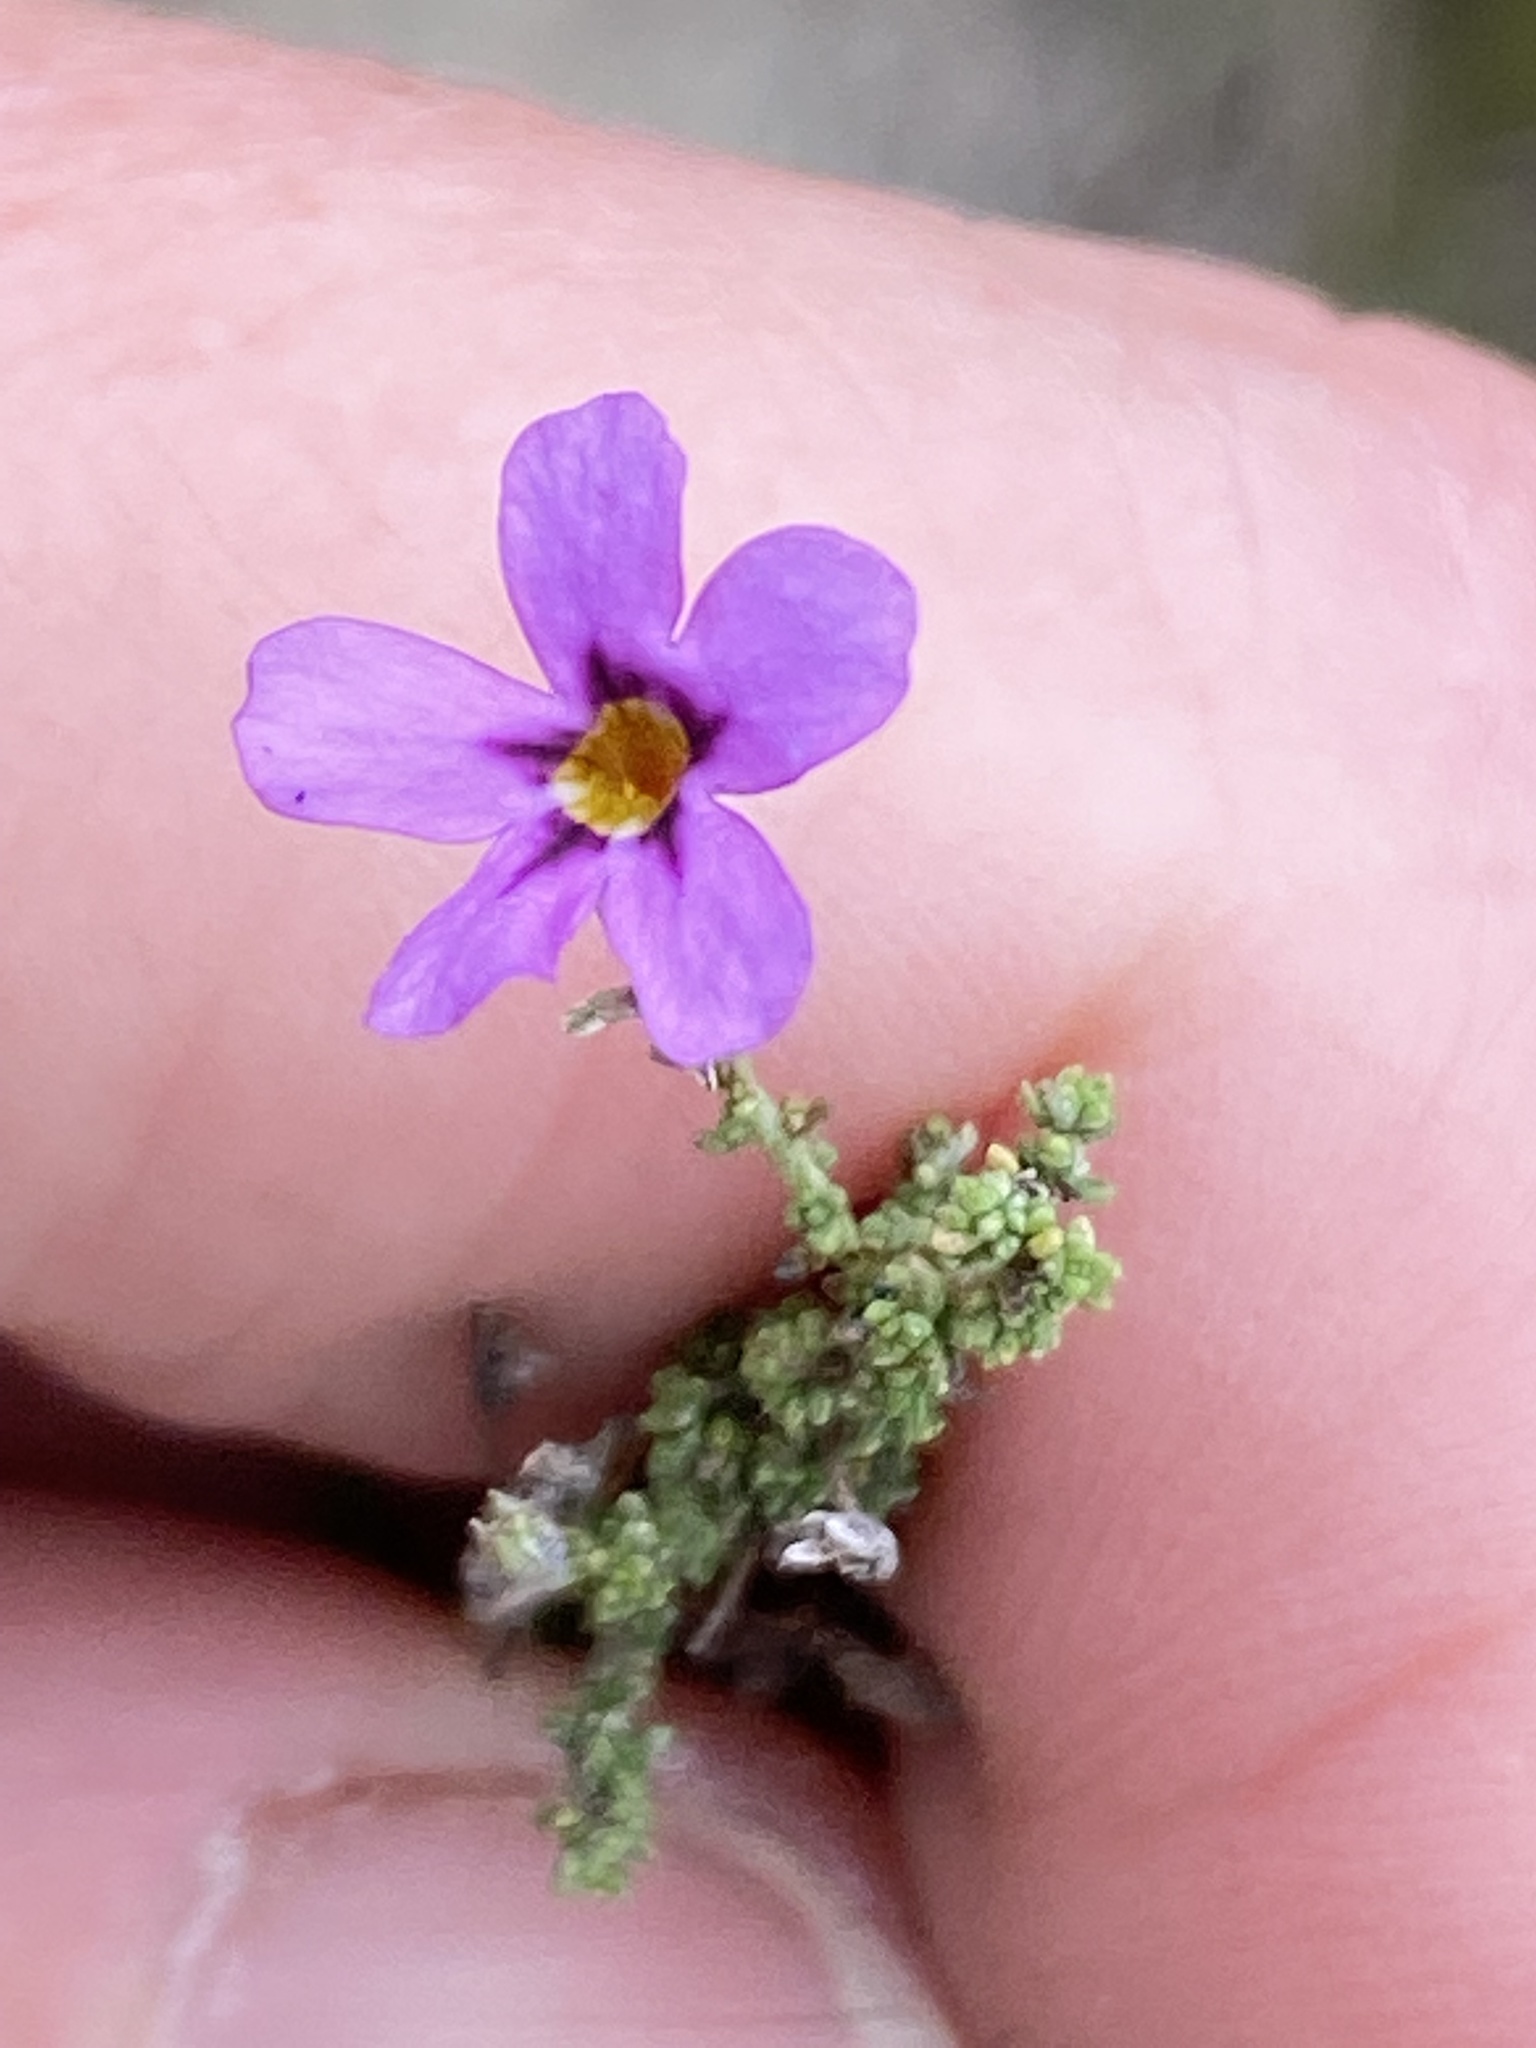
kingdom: Plantae
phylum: Tracheophyta
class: Magnoliopsida
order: Lamiales
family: Scrophulariaceae
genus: Jamesbrittenia
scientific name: Jamesbrittenia calciphila
